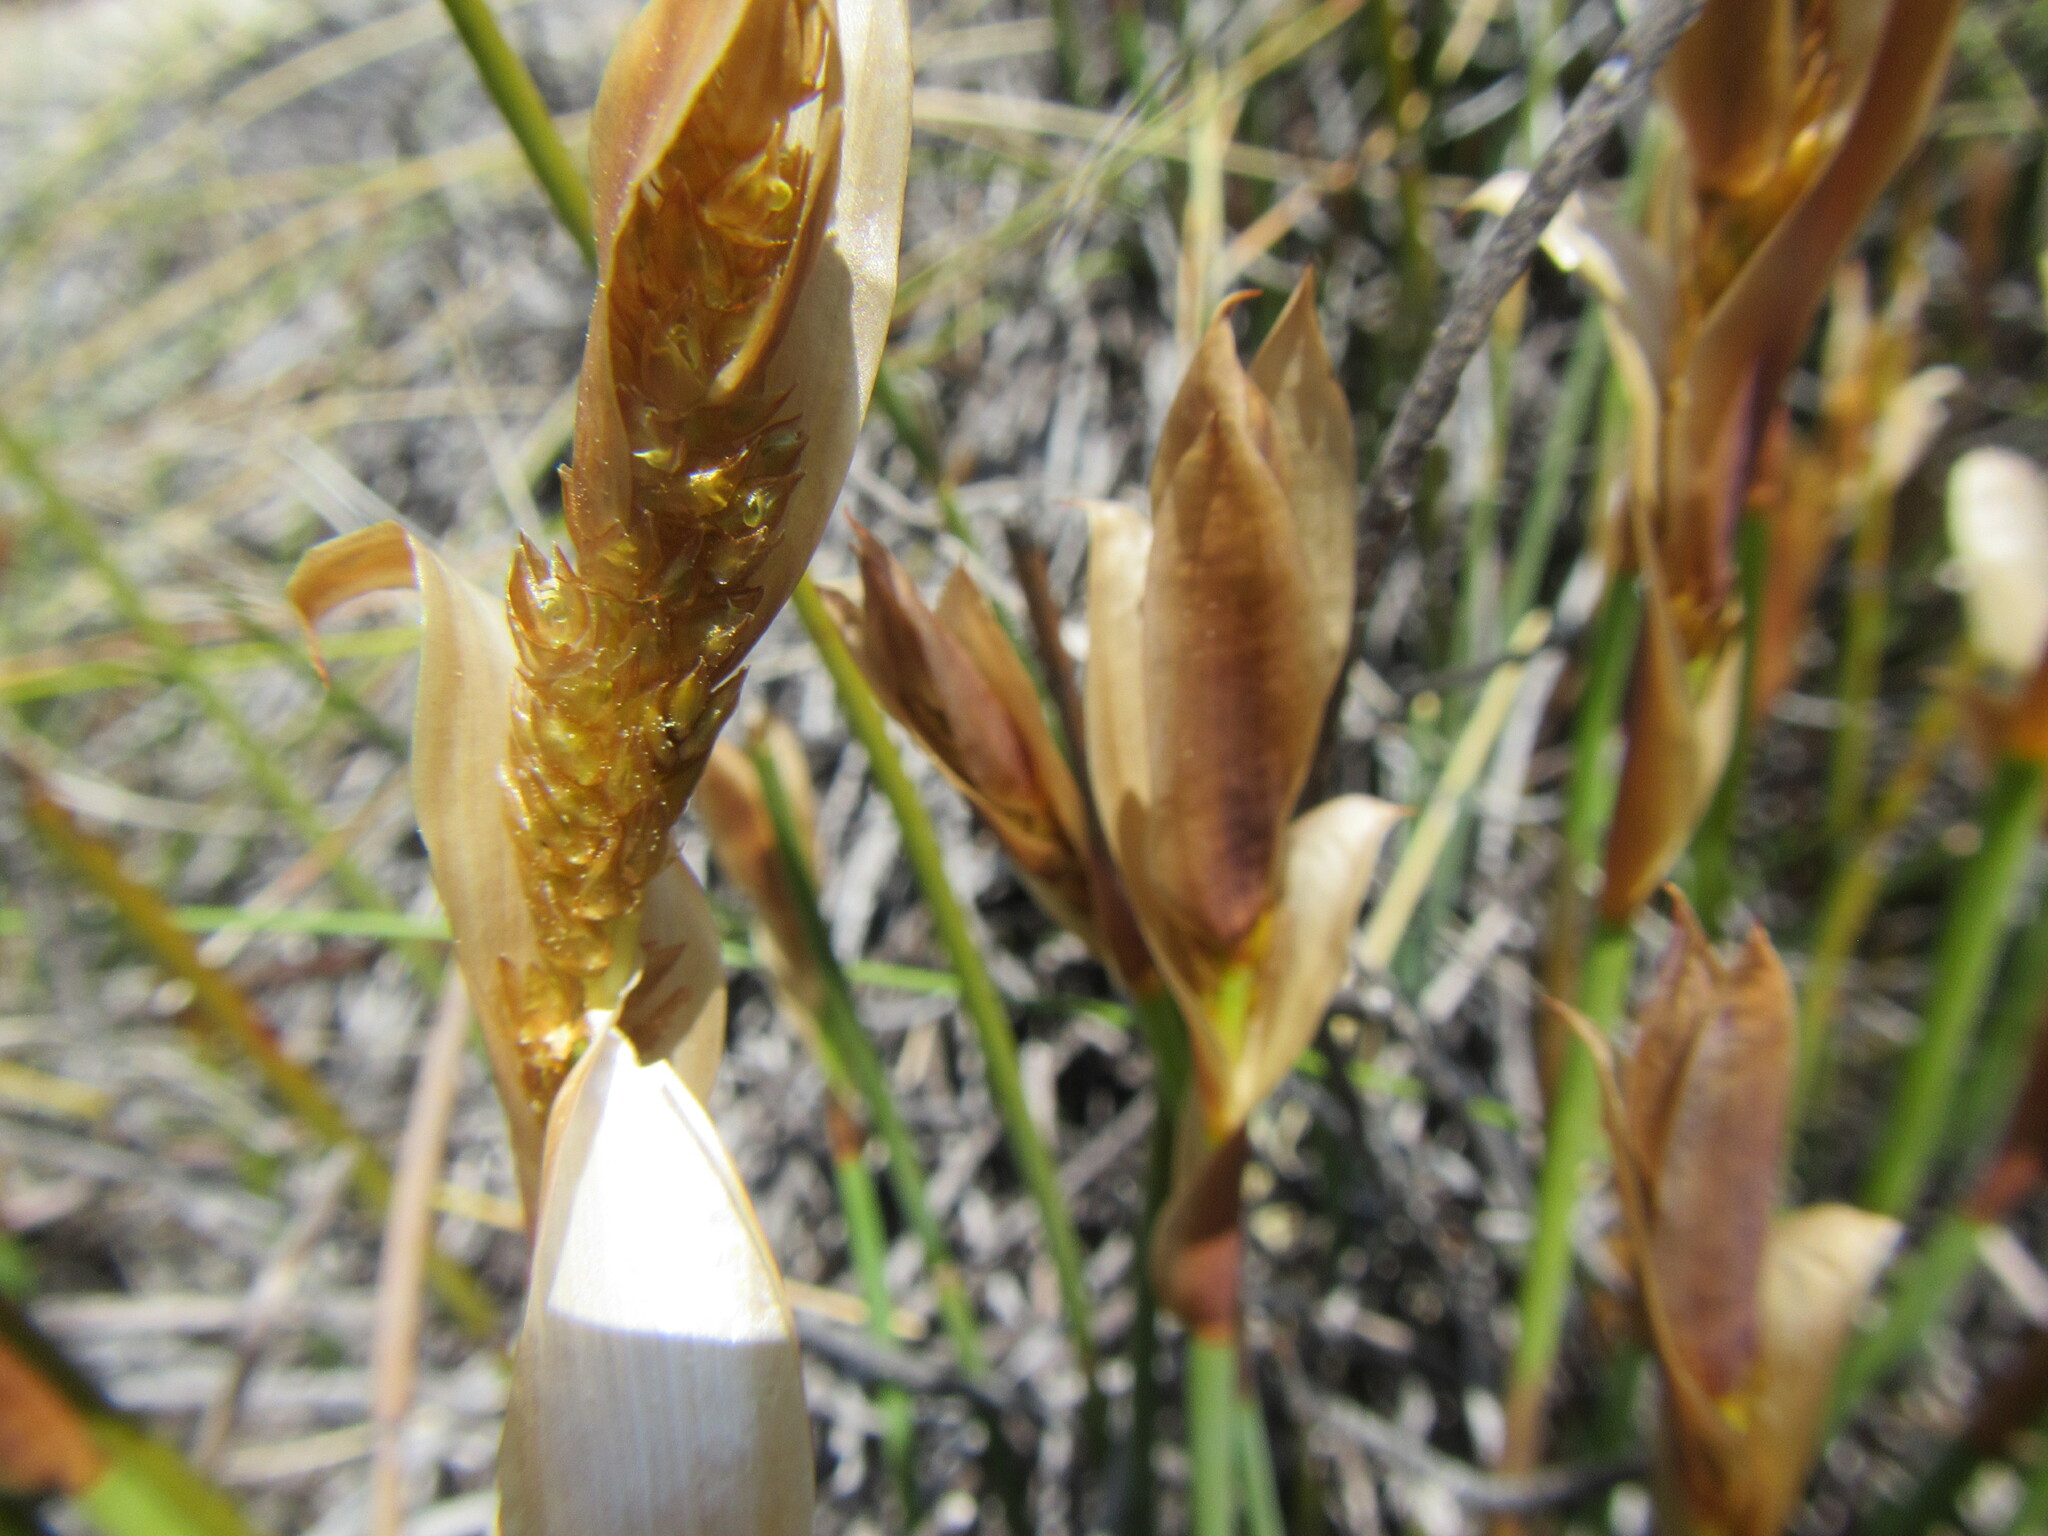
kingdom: Plantae
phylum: Tracheophyta
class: Liliopsida
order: Poales
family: Restionaceae
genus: Elegia
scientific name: Elegia esterhuyseniae
